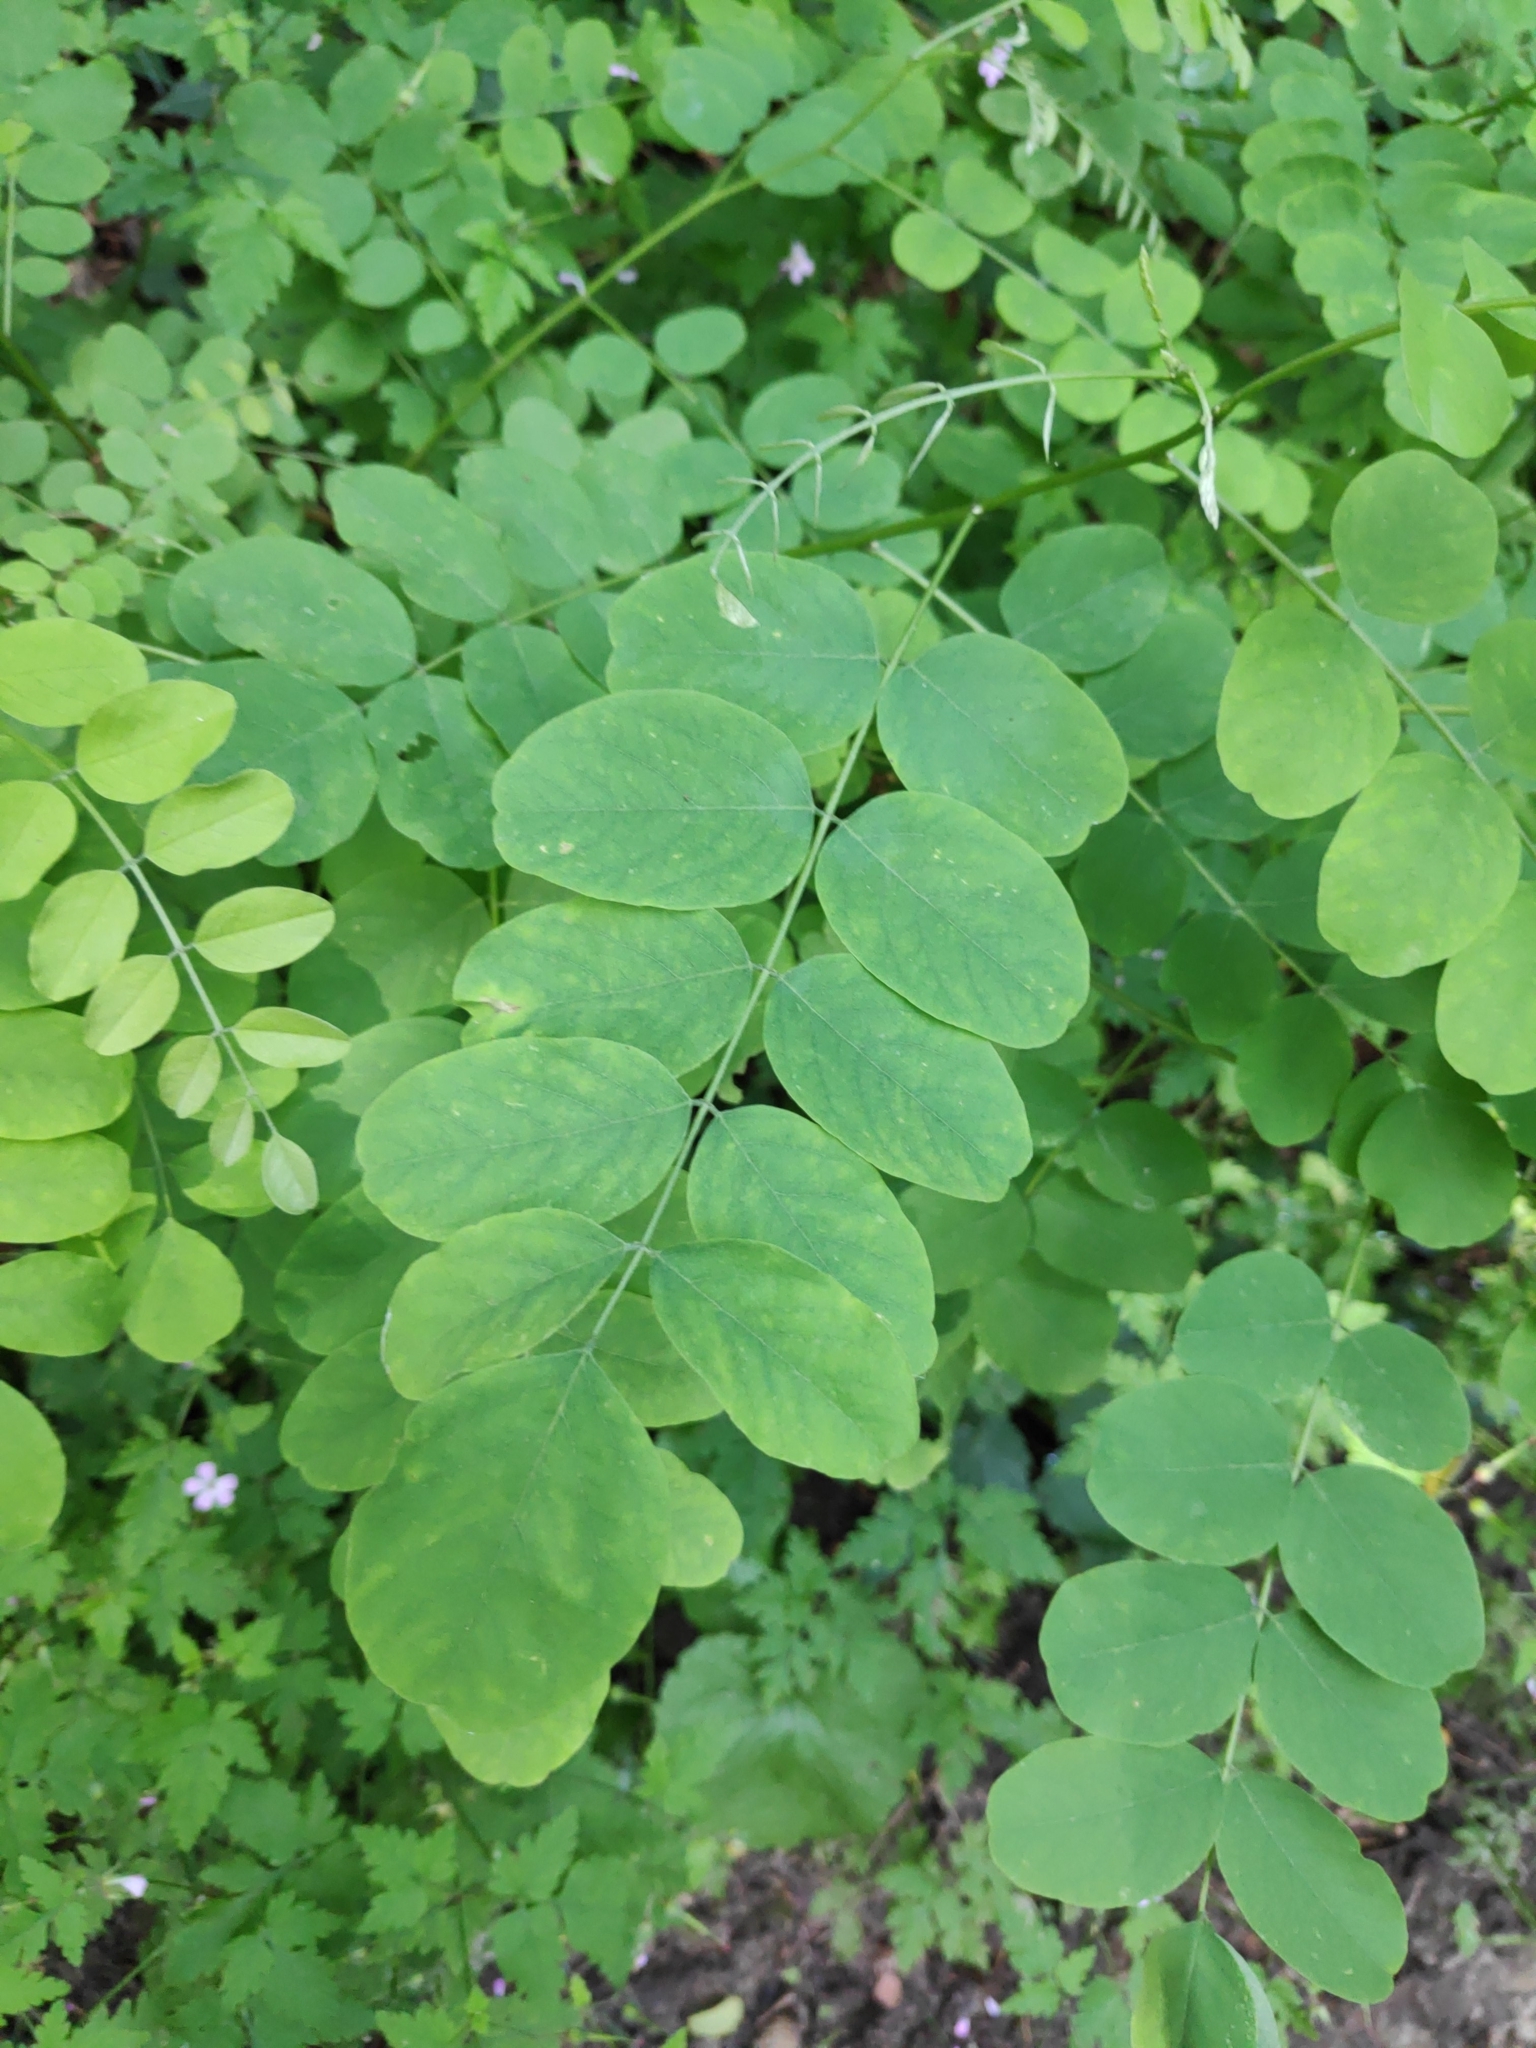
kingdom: Plantae
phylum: Tracheophyta
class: Magnoliopsida
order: Fabales
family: Fabaceae
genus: Robinia
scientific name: Robinia pseudoacacia
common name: Black locust
